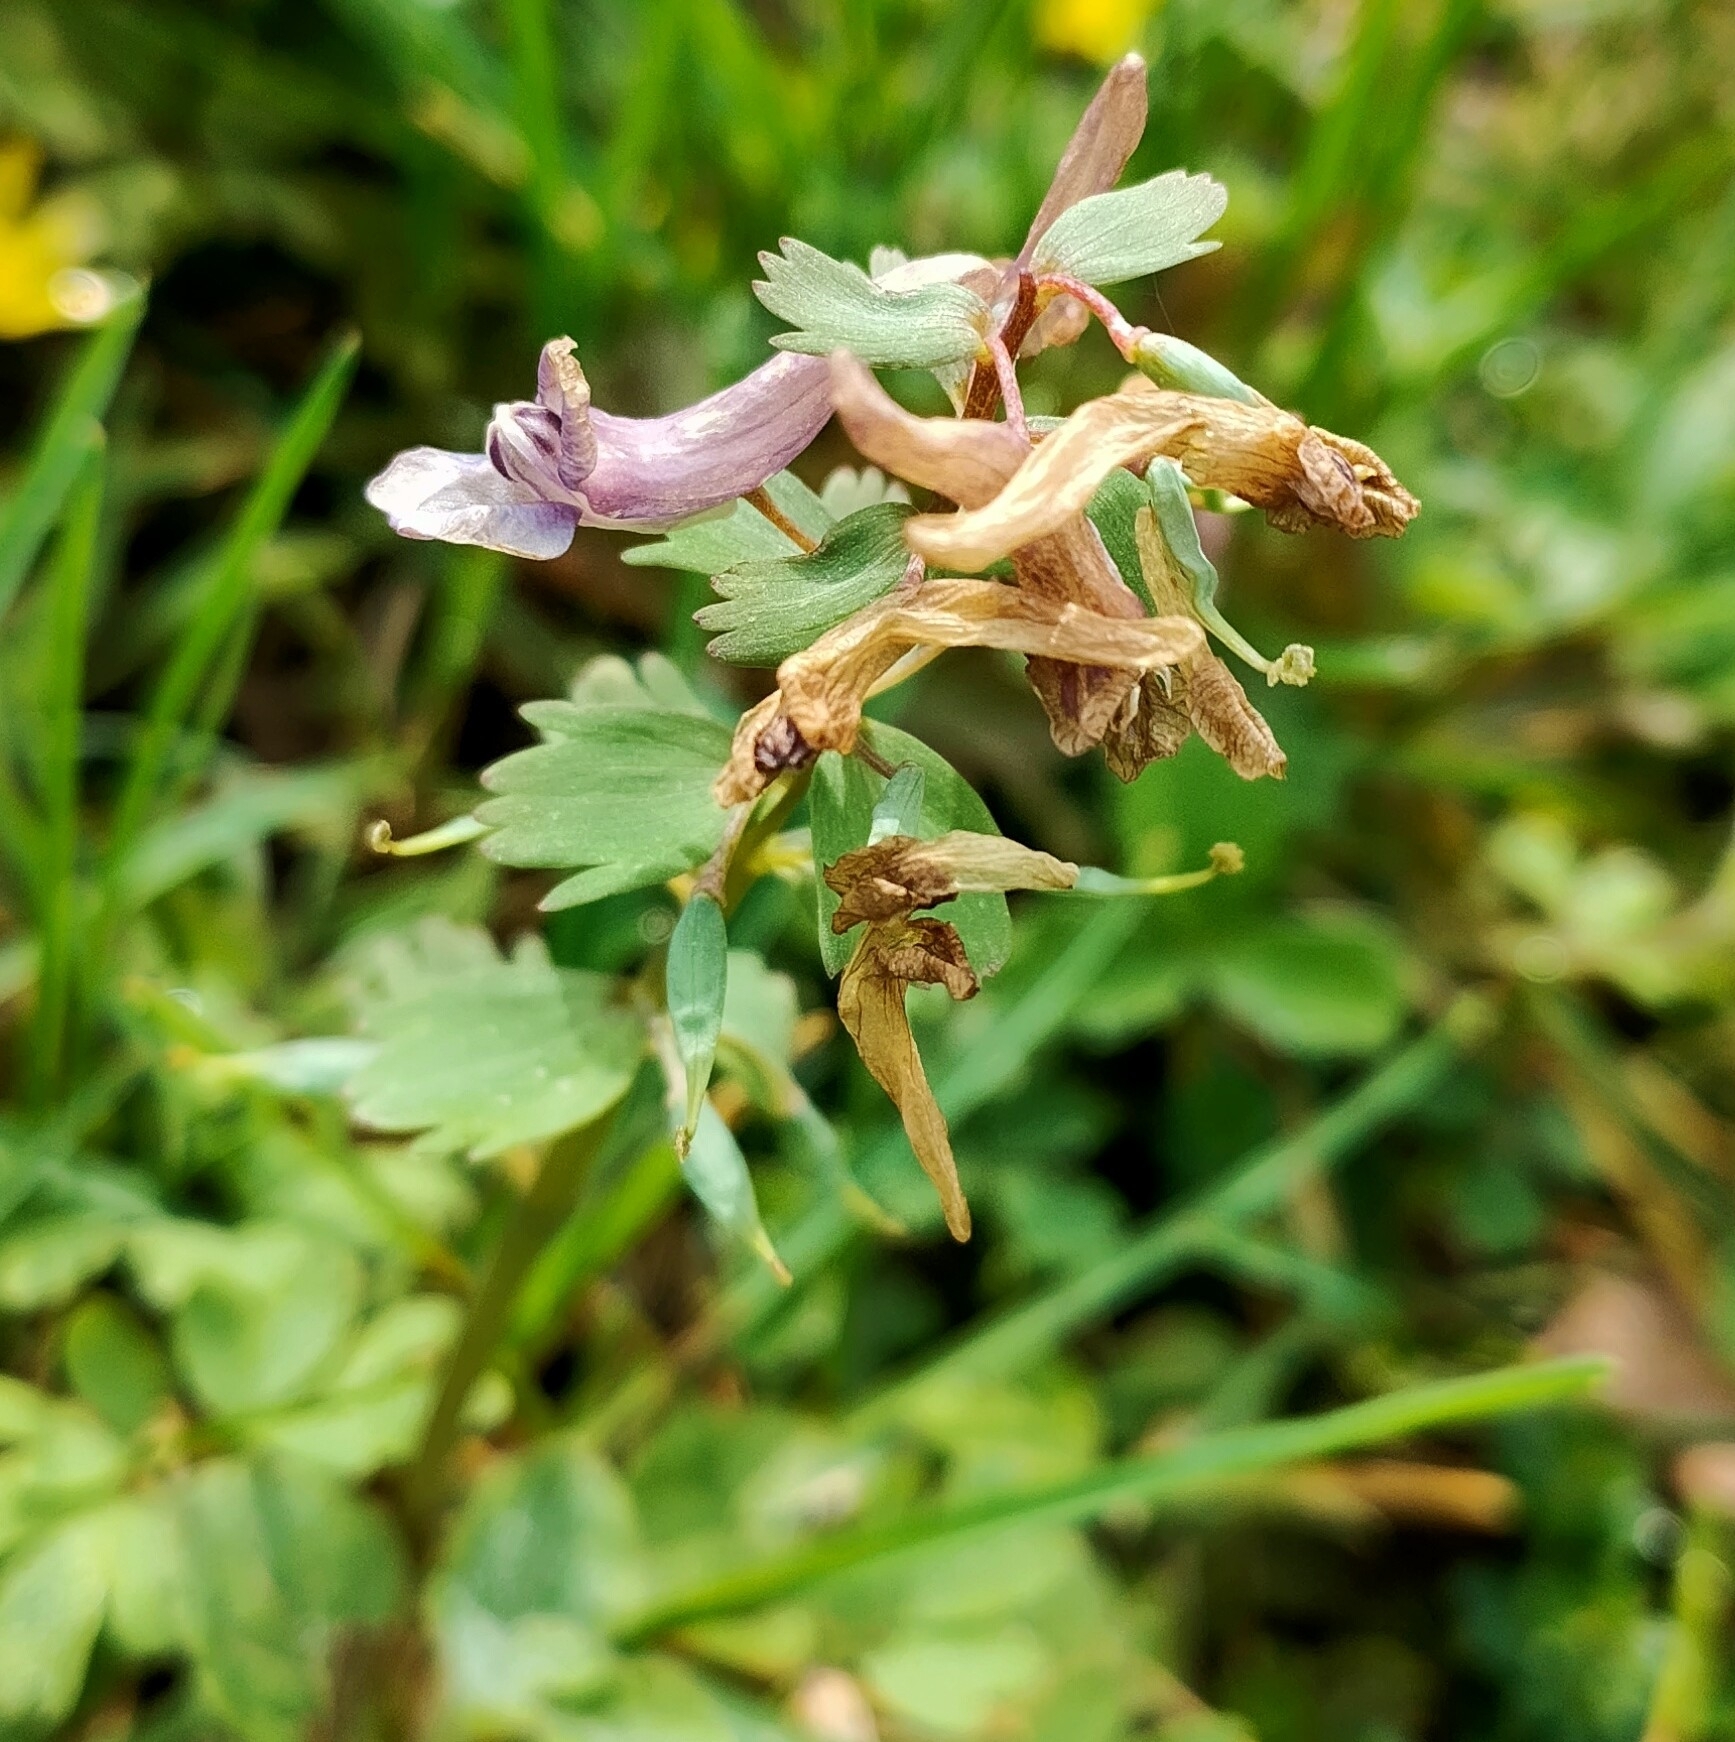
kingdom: Plantae
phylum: Tracheophyta
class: Magnoliopsida
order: Ranunculales
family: Papaveraceae
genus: Corydalis
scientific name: Corydalis solida
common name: Bird-in-a-bush
